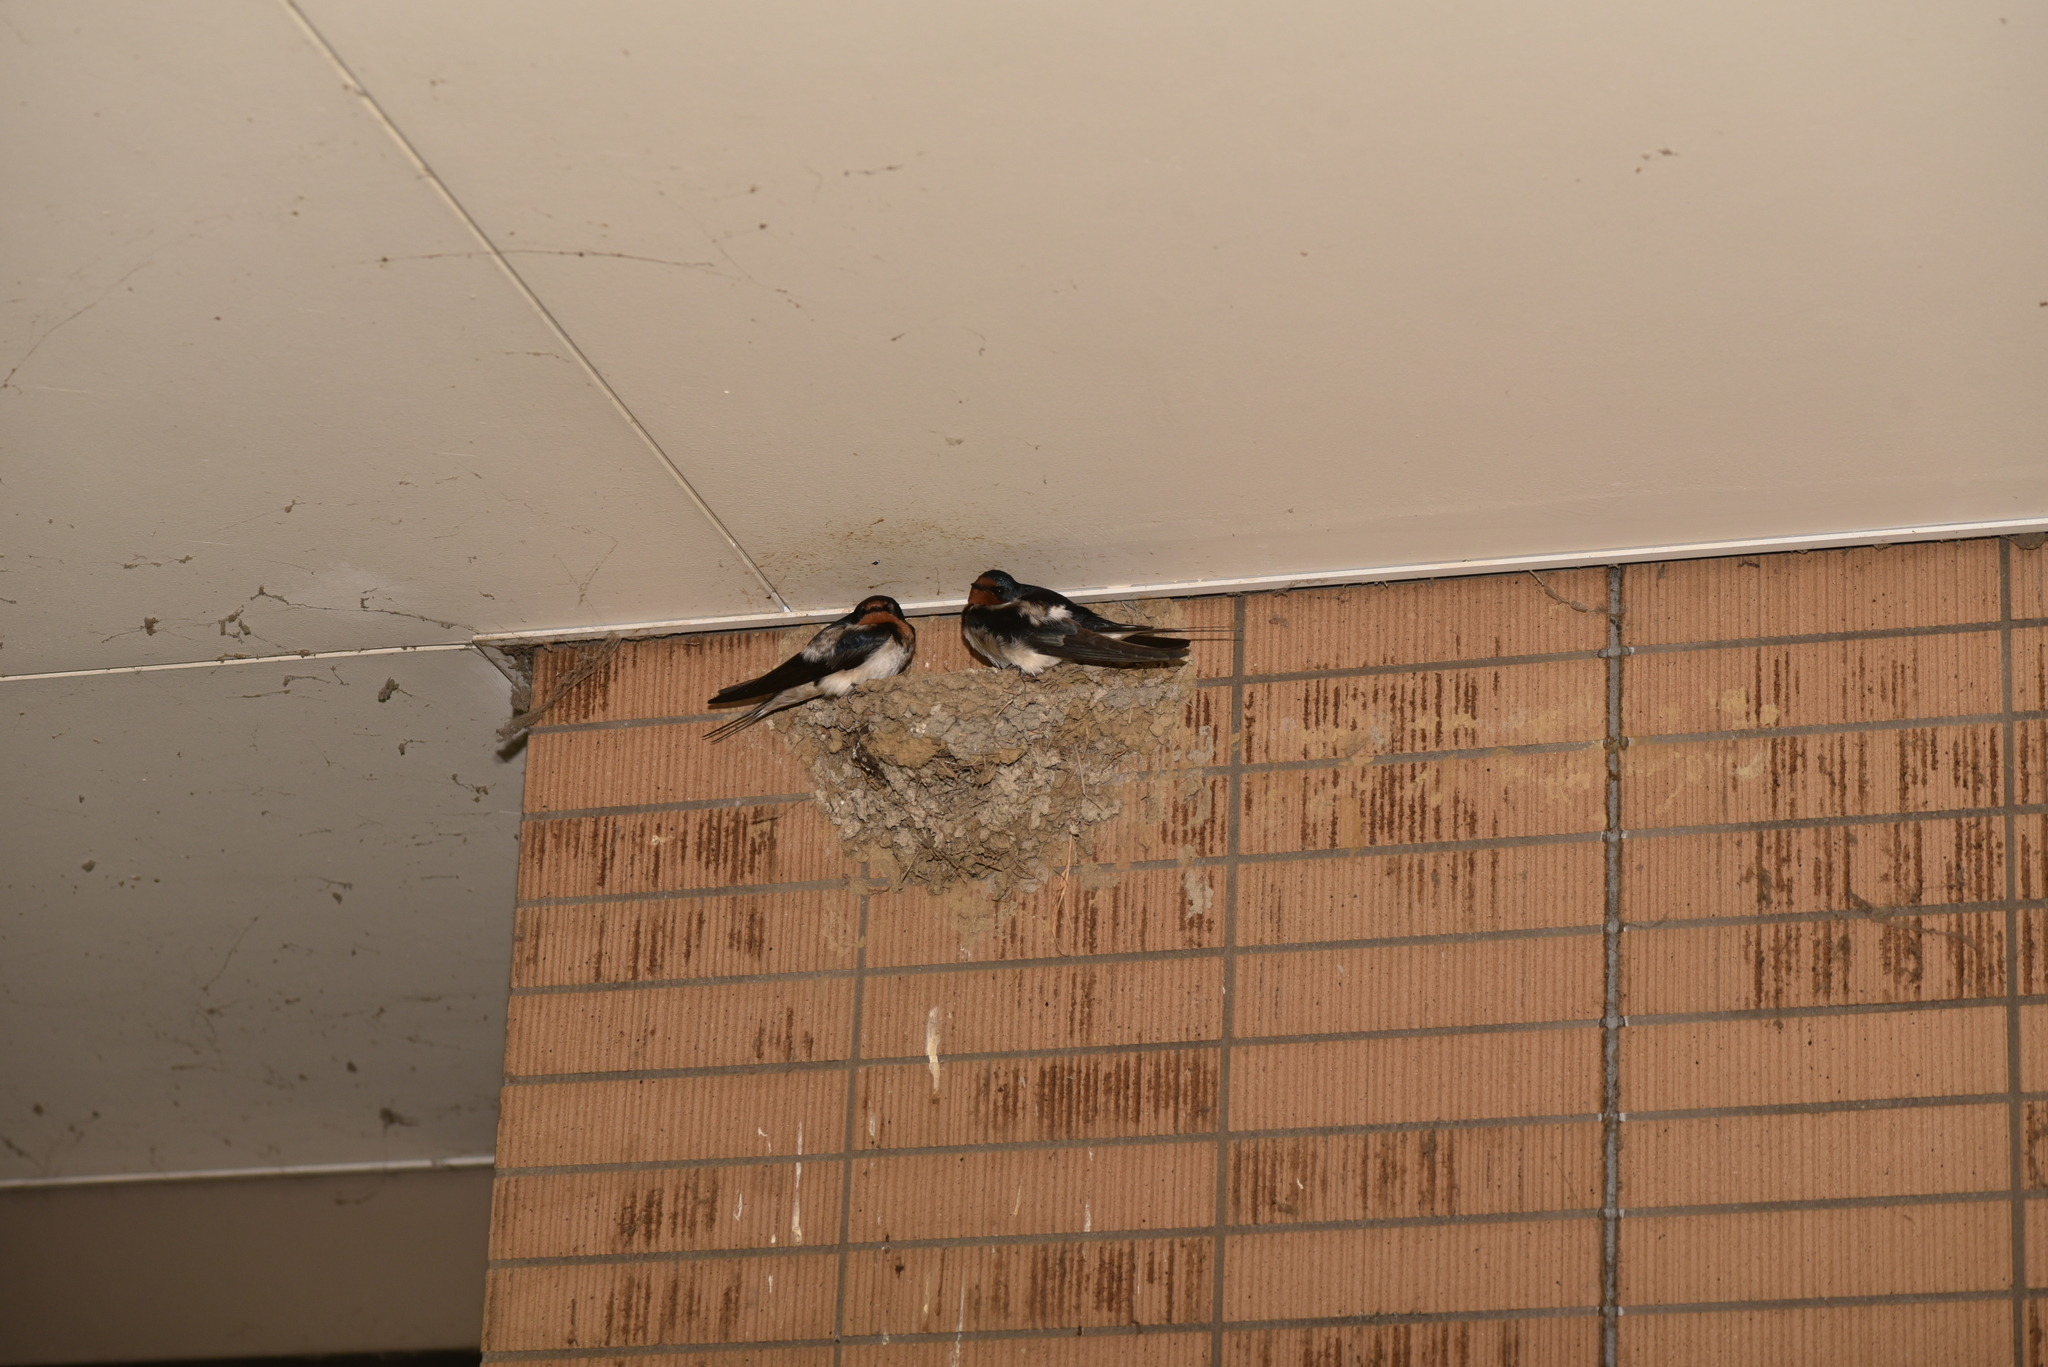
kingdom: Animalia
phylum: Chordata
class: Aves
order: Passeriformes
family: Hirundinidae
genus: Hirundo
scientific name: Hirundo rustica
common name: Barn swallow
